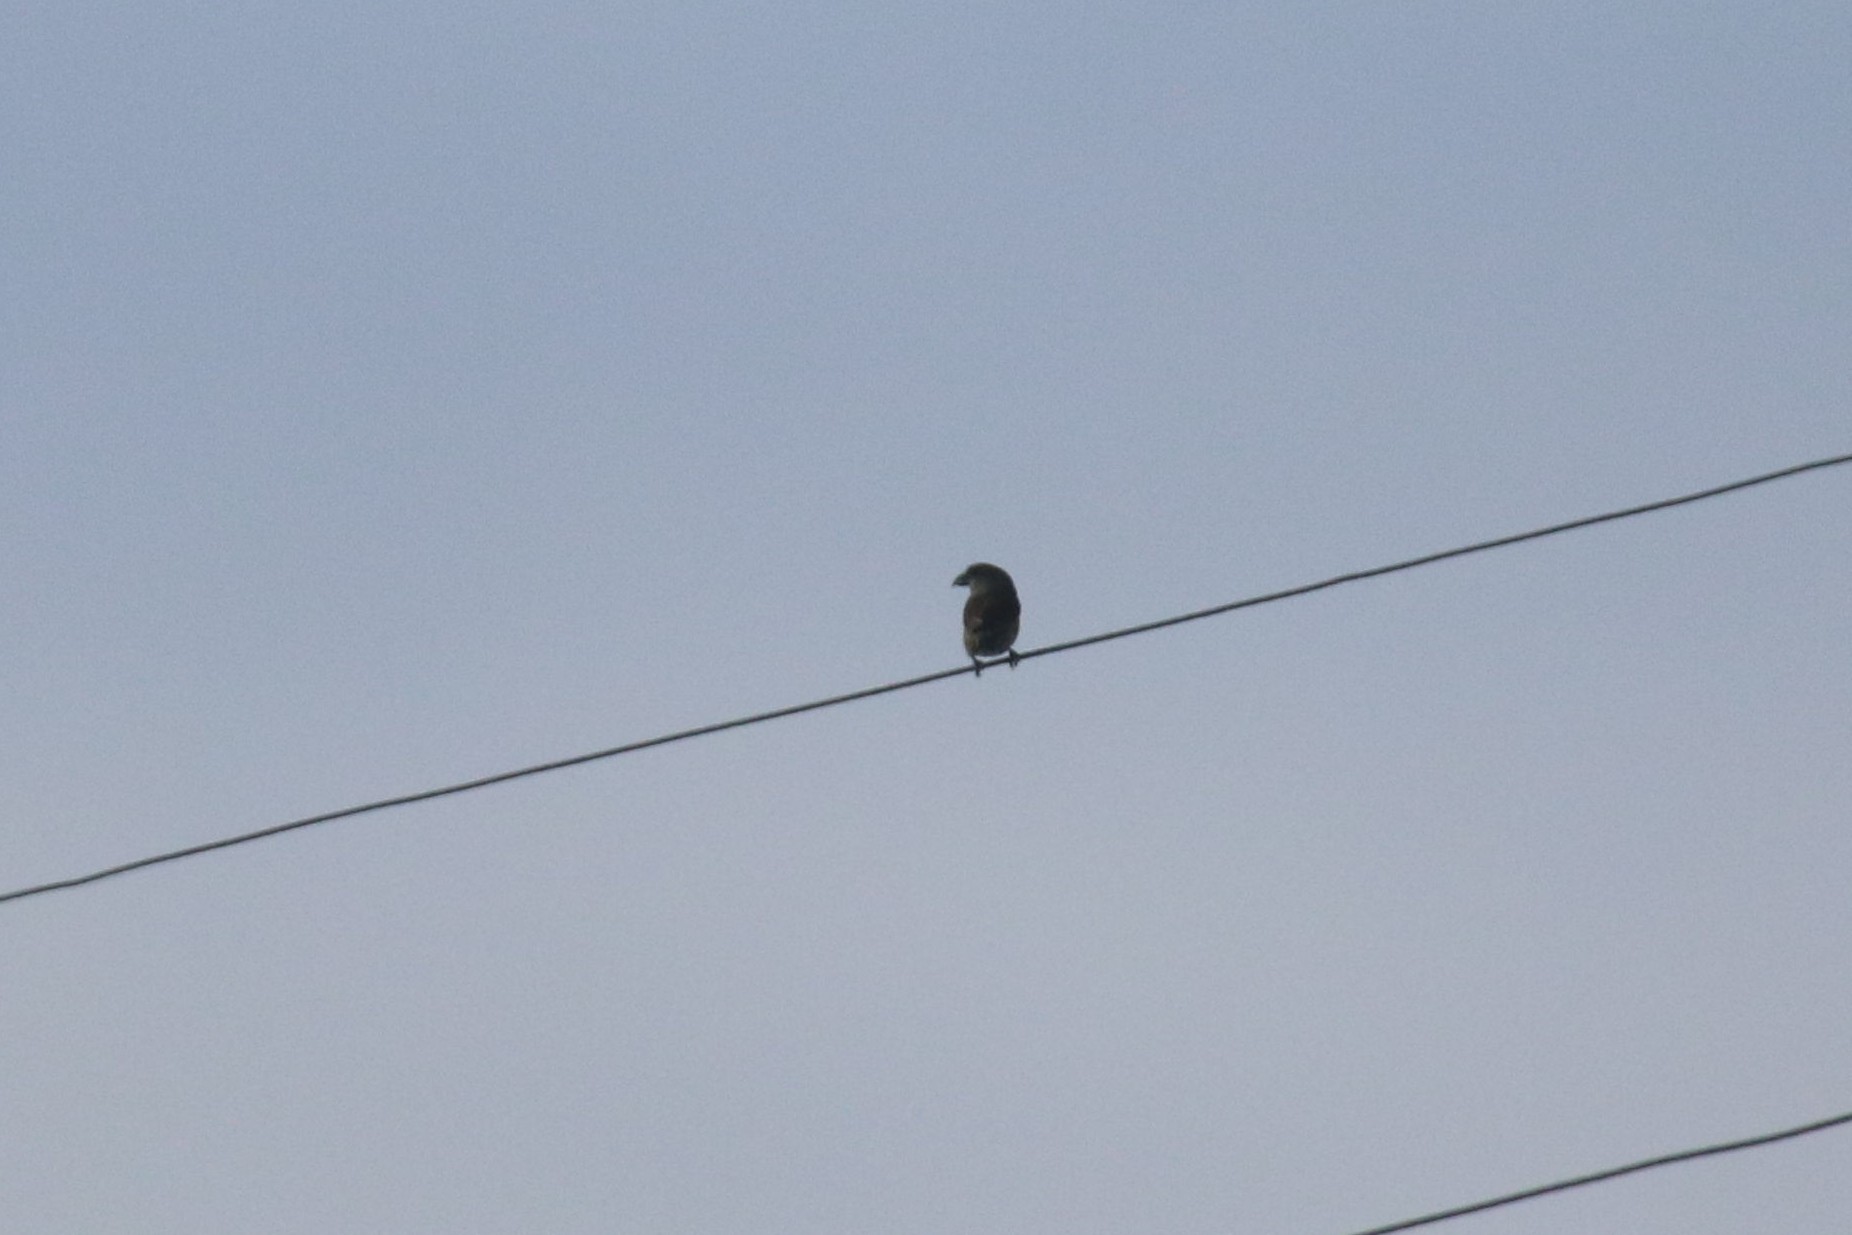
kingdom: Animalia
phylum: Chordata
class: Aves
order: Passeriformes
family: Fringillidae
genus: Loxia
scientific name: Loxia curvirostra
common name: Red crossbill
